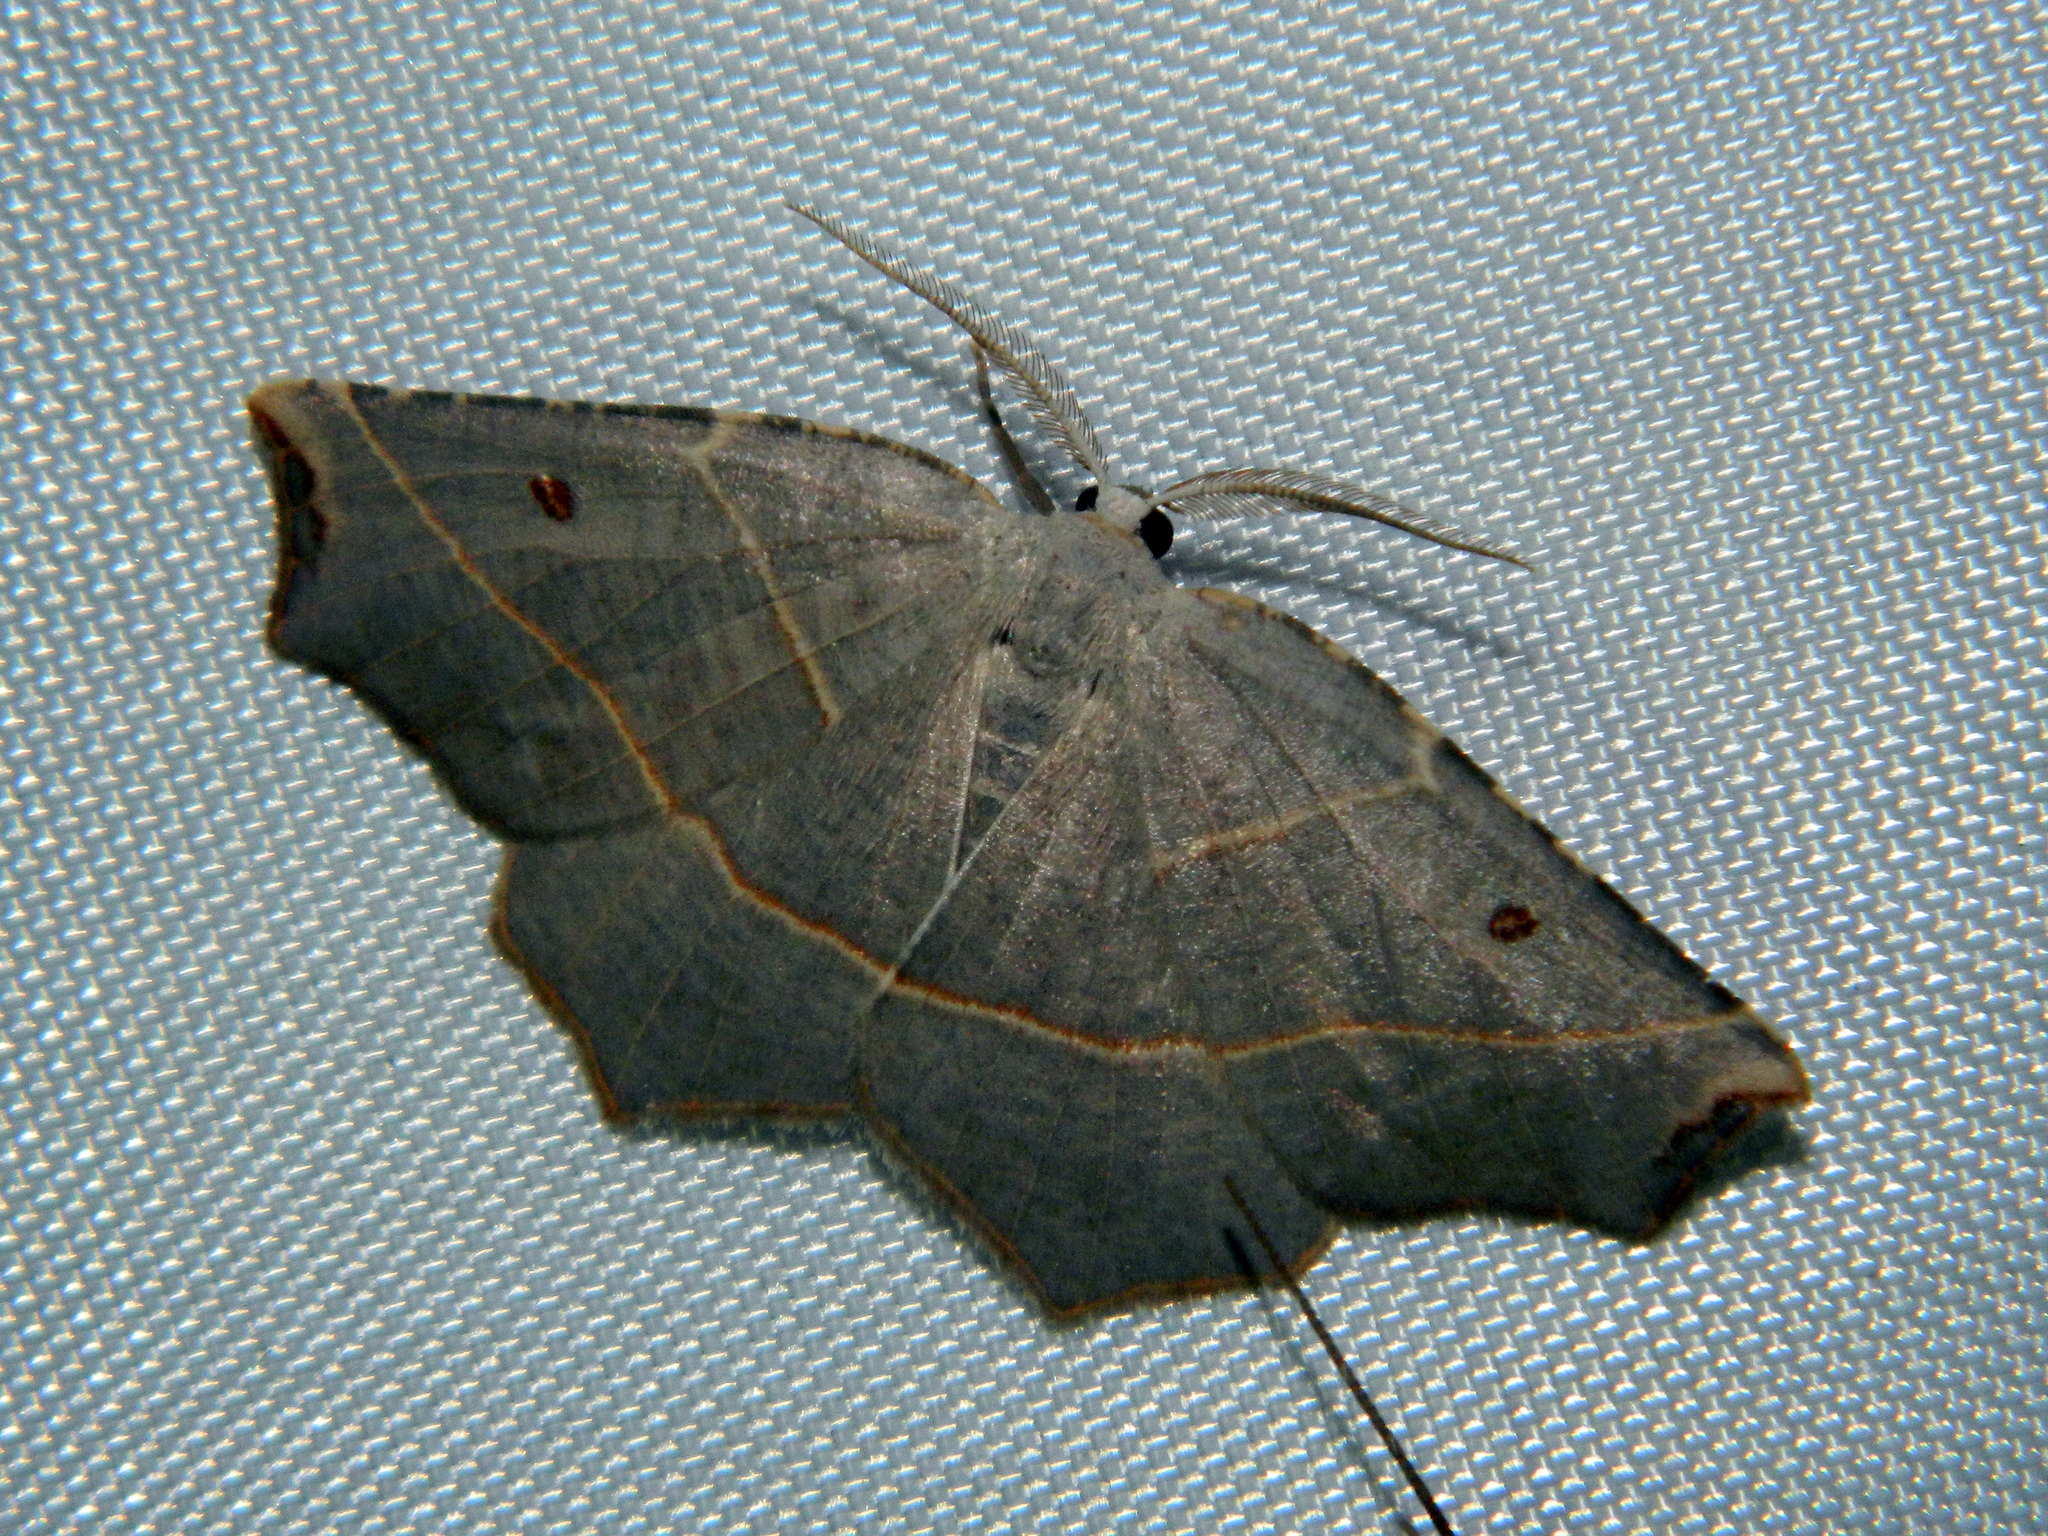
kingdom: Animalia
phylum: Arthropoda
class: Insecta
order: Lepidoptera
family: Geometridae
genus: Metanema
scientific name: Metanema inatomaria
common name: Pale metanema
